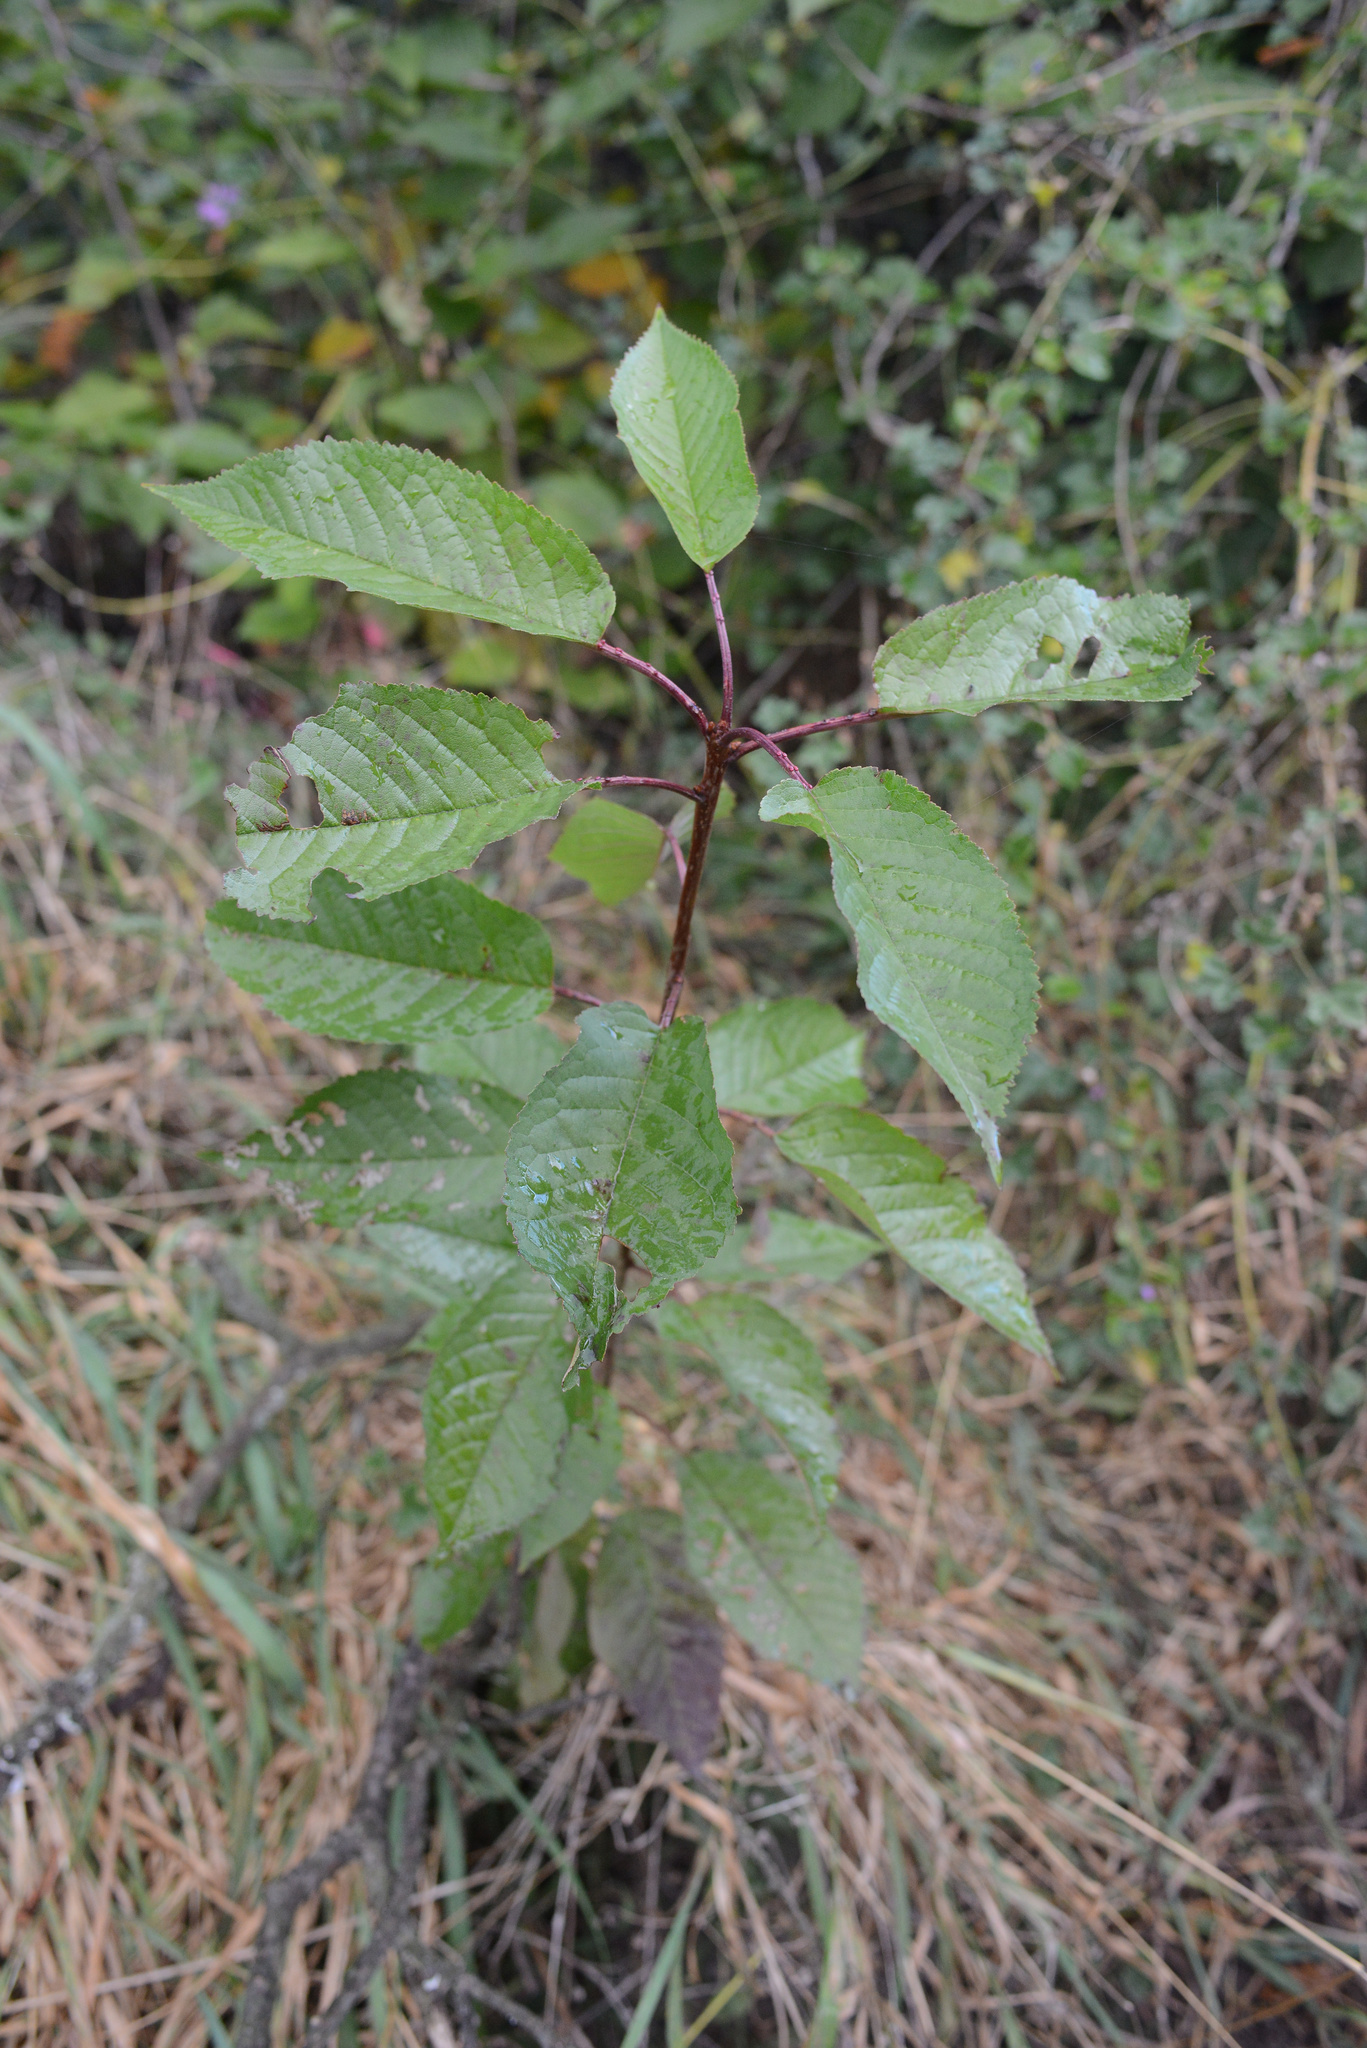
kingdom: Plantae
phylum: Tracheophyta
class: Magnoliopsida
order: Rosales
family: Rosaceae
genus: Prunus
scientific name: Prunus cerasus
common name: Morello cherry
